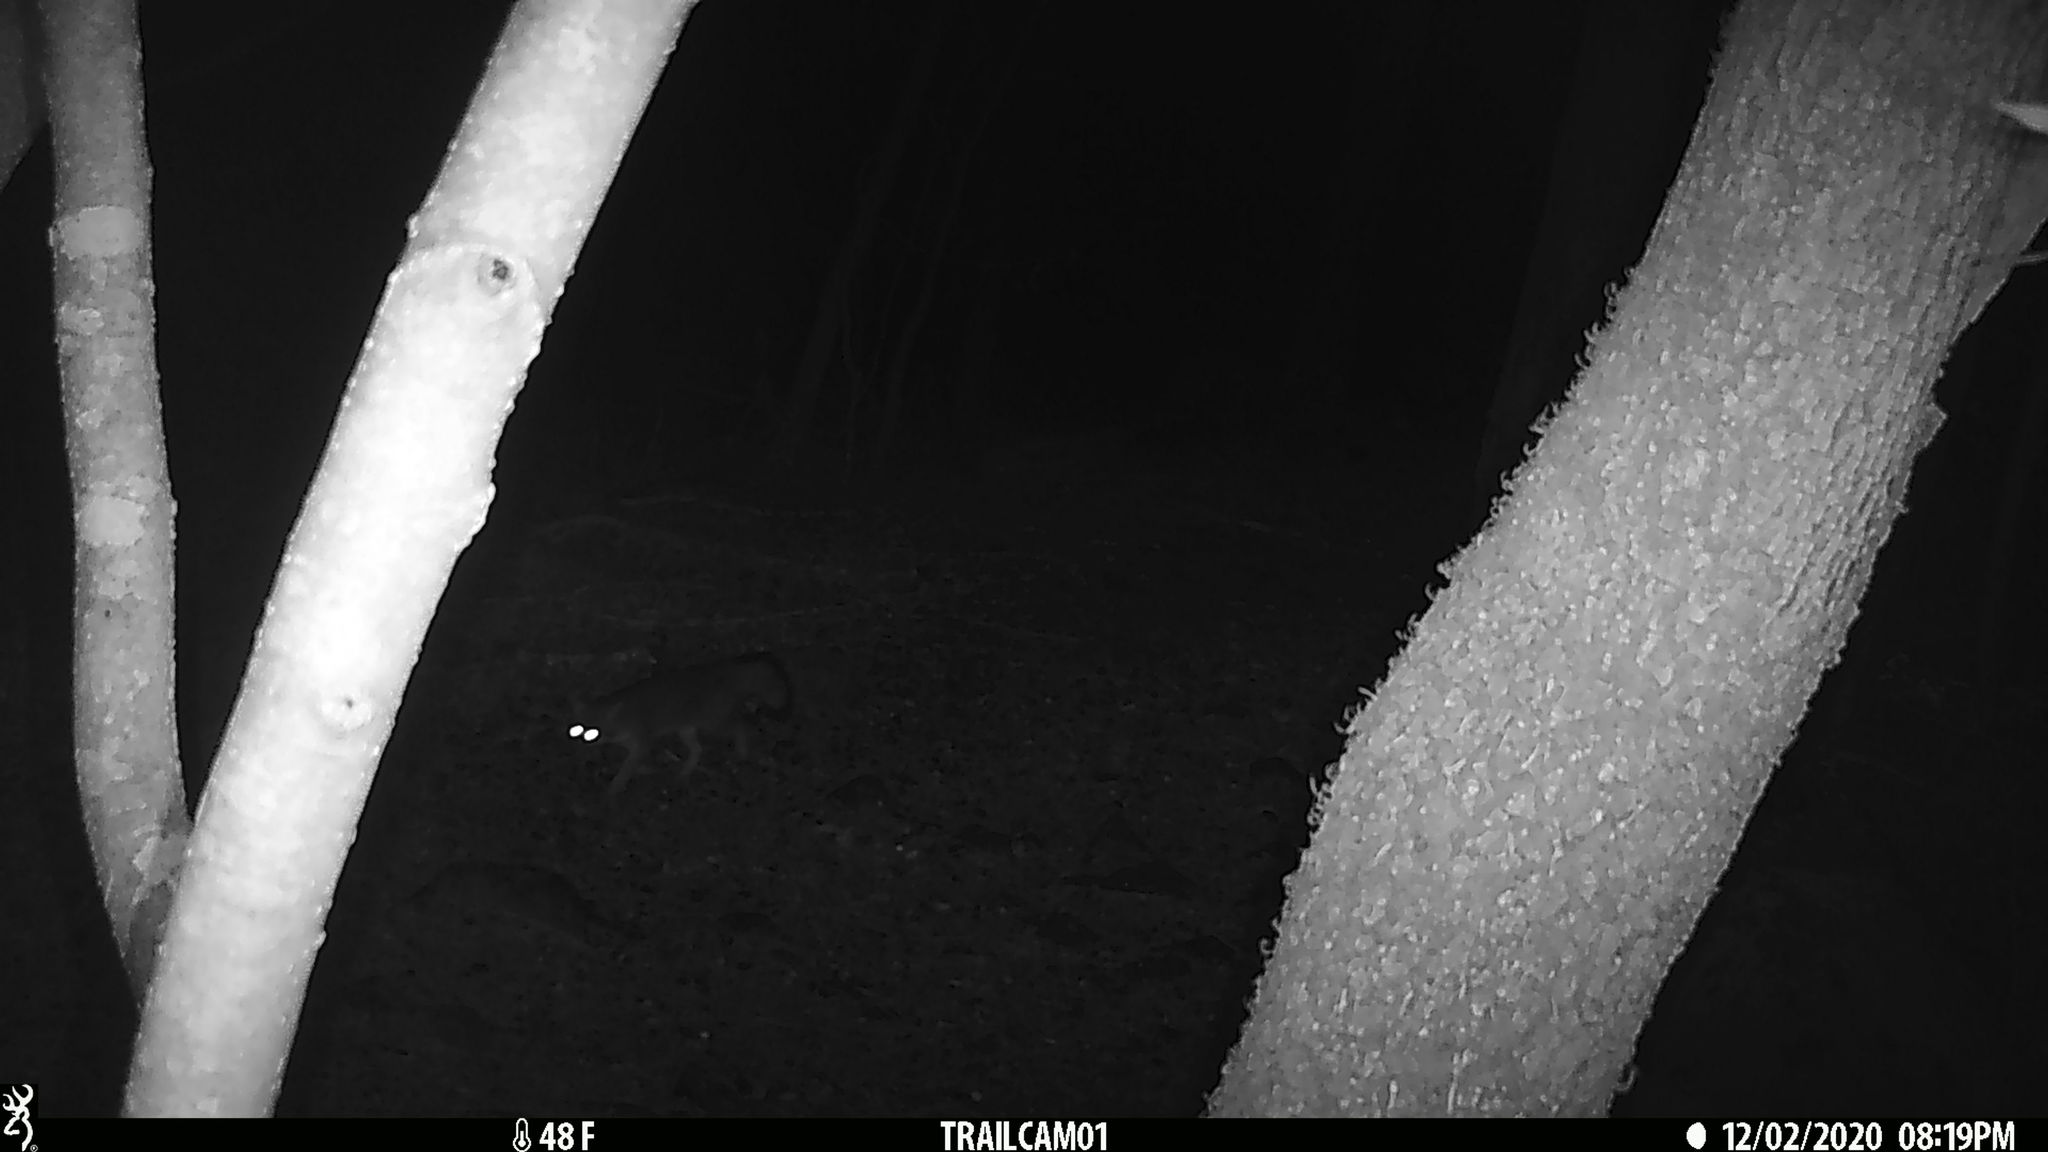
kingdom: Animalia
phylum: Chordata
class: Mammalia
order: Carnivora
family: Canidae
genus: Urocyon
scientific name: Urocyon cinereoargenteus
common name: Gray fox
